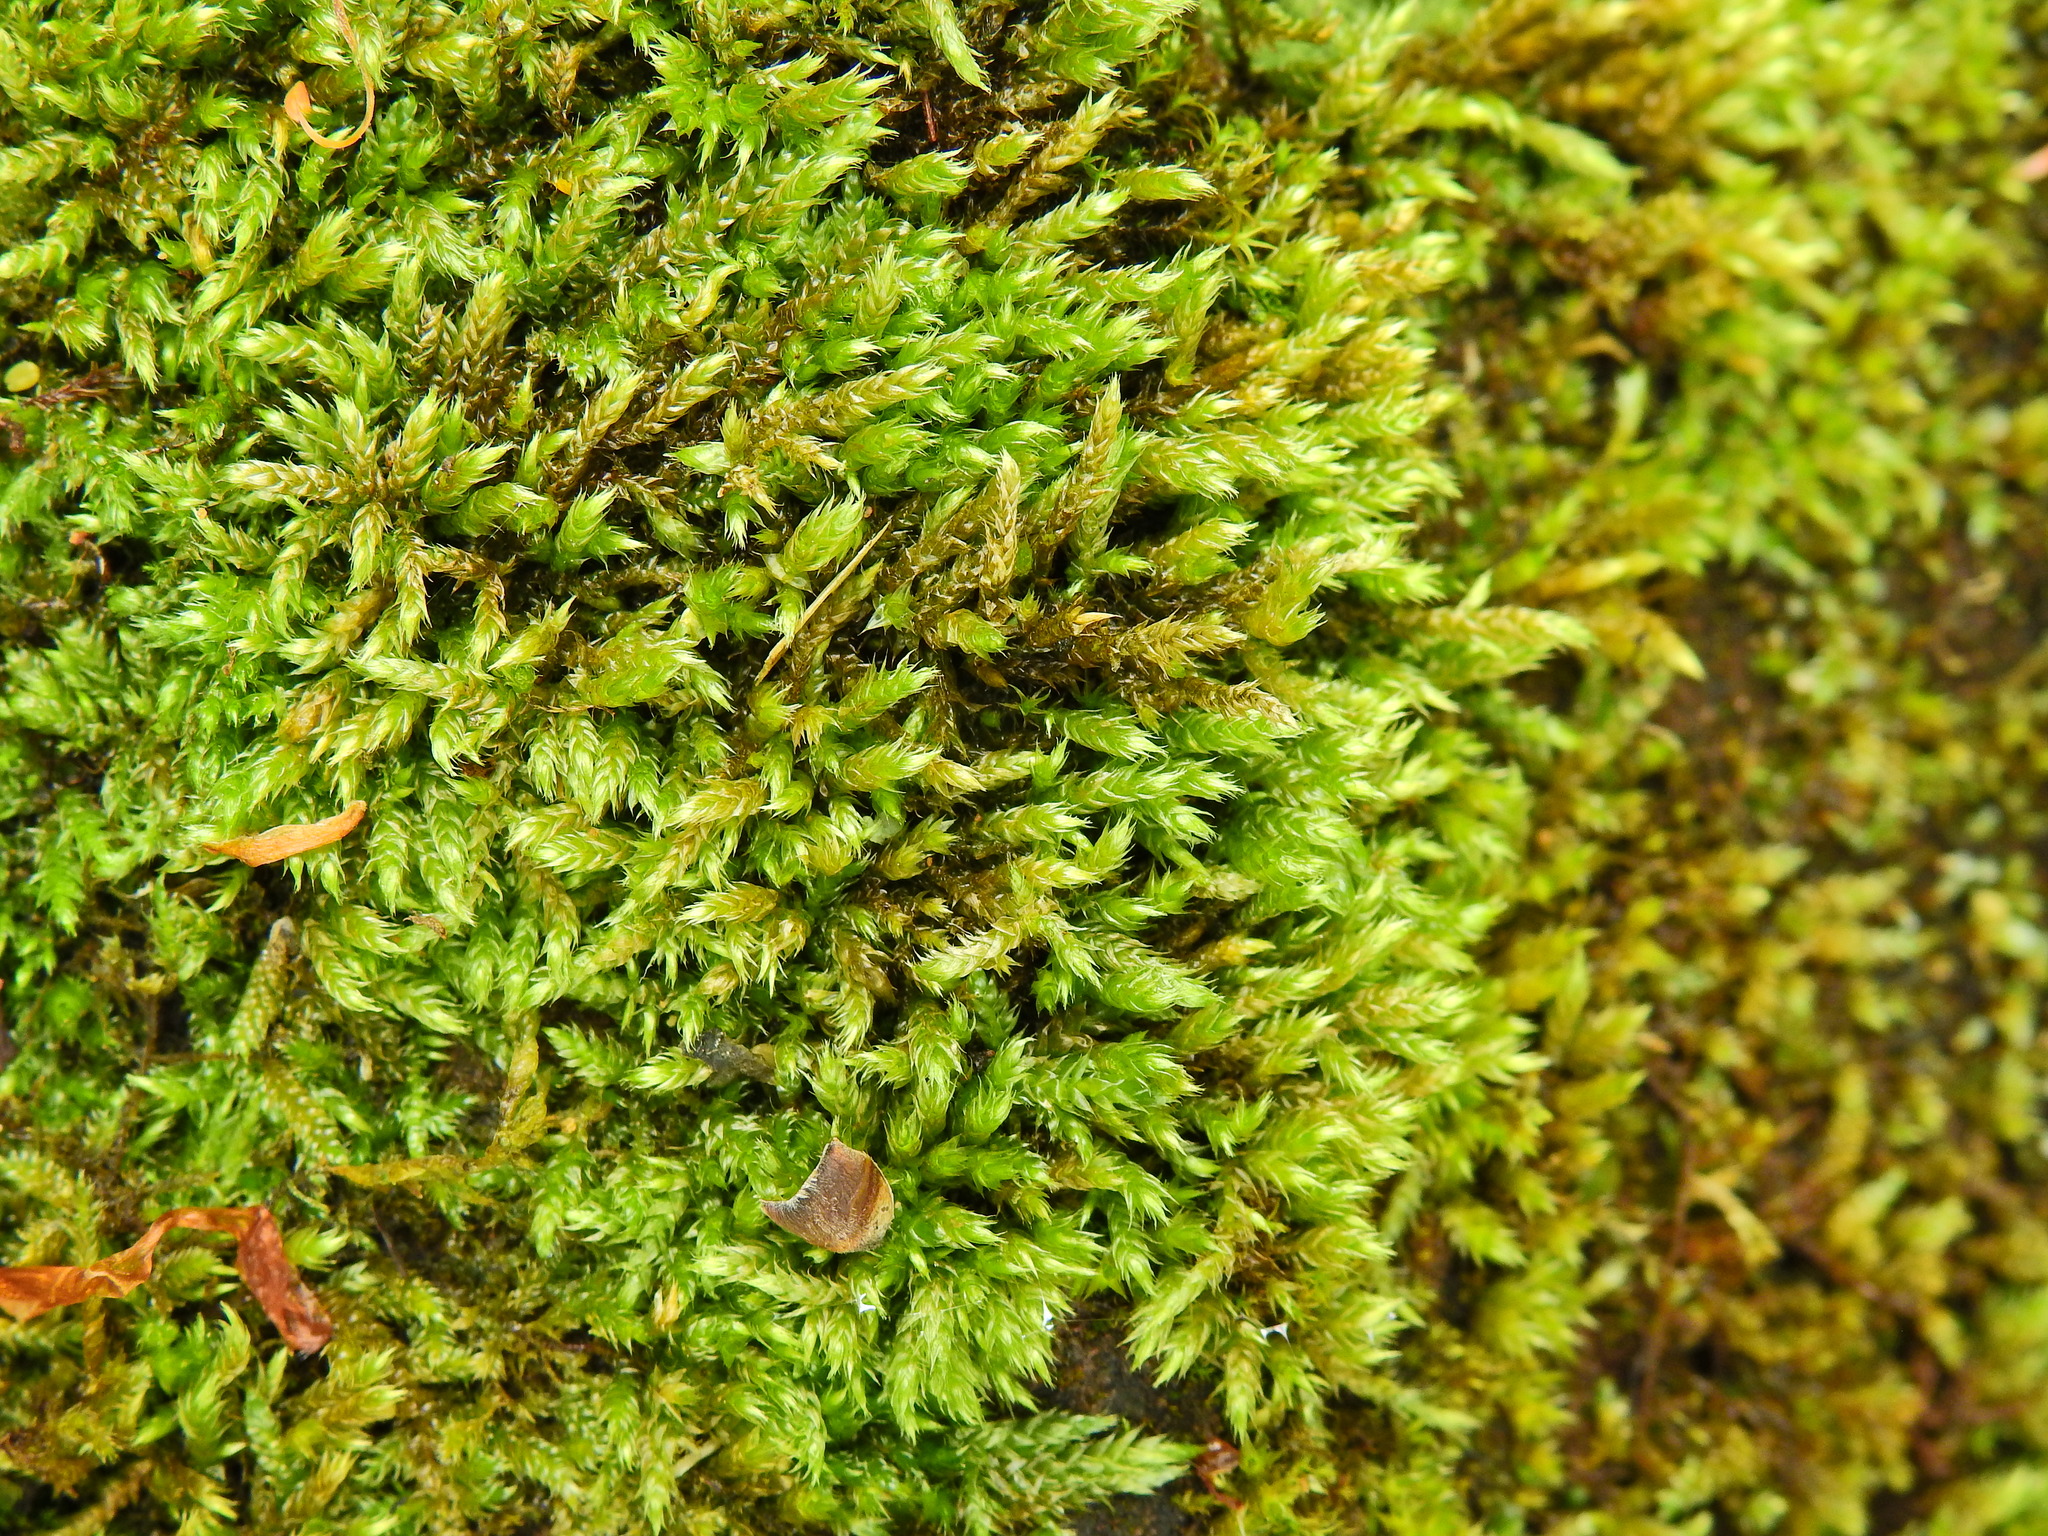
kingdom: Plantae
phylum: Bryophyta
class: Bryopsida
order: Hypnales
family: Hypnaceae
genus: Hypnum
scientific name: Hypnum cupressiforme
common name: Cypress-leaved plait-moss
